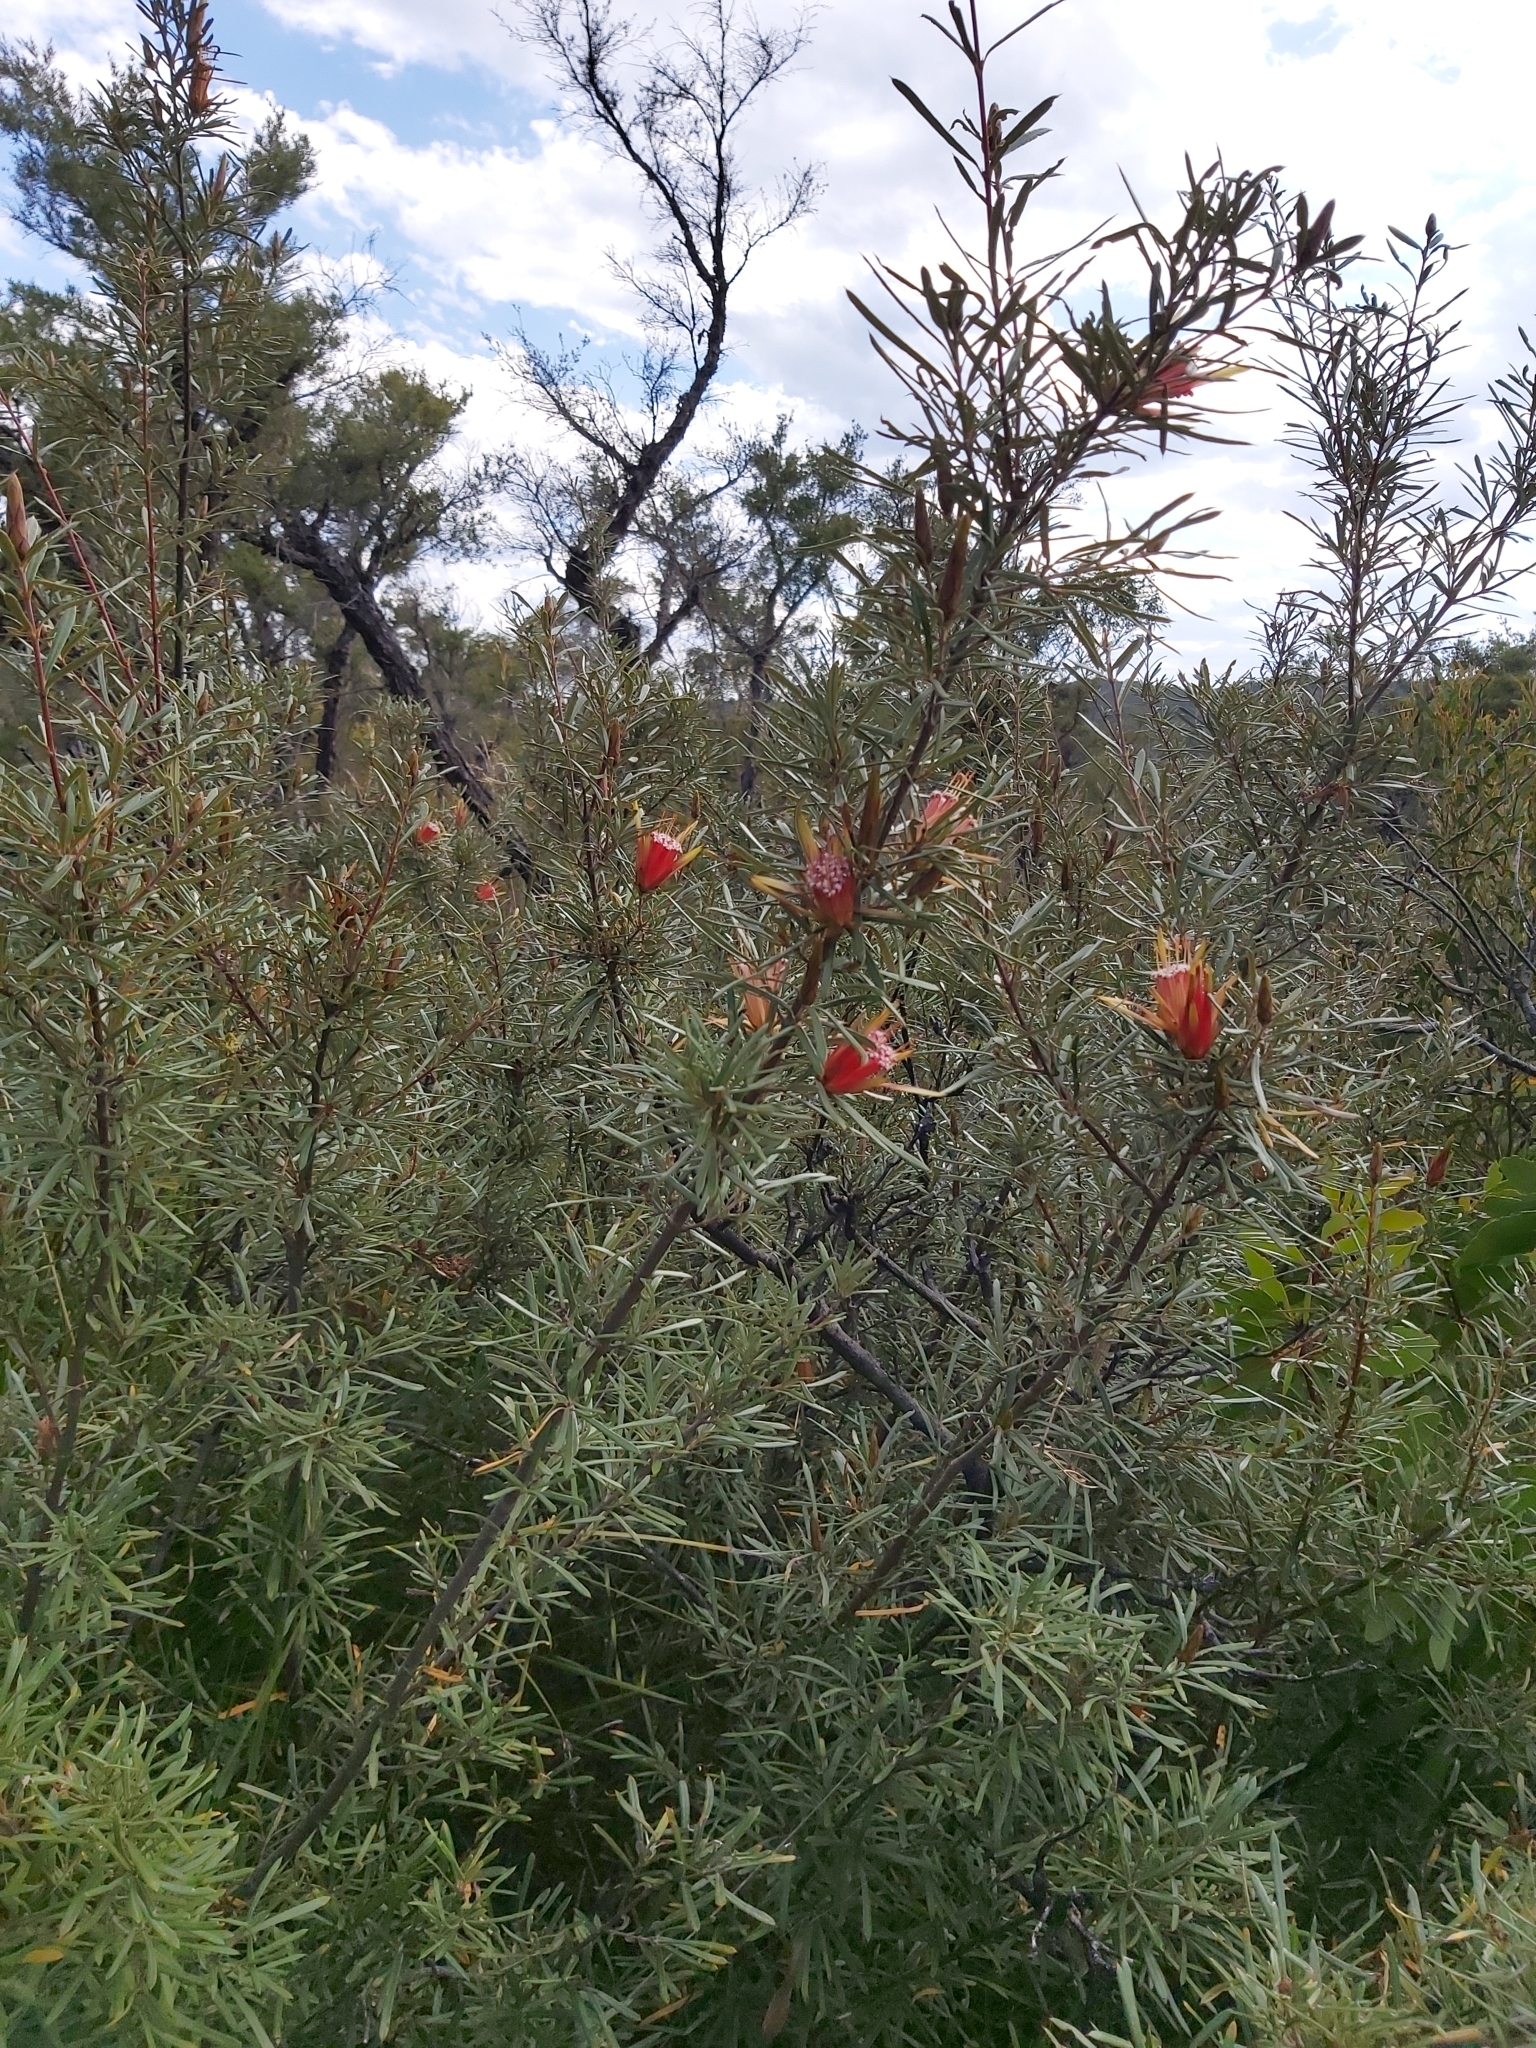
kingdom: Plantae
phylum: Tracheophyta
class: Magnoliopsida
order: Proteales
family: Proteaceae
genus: Lambertia
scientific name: Lambertia formosa
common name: Mountain-devil
